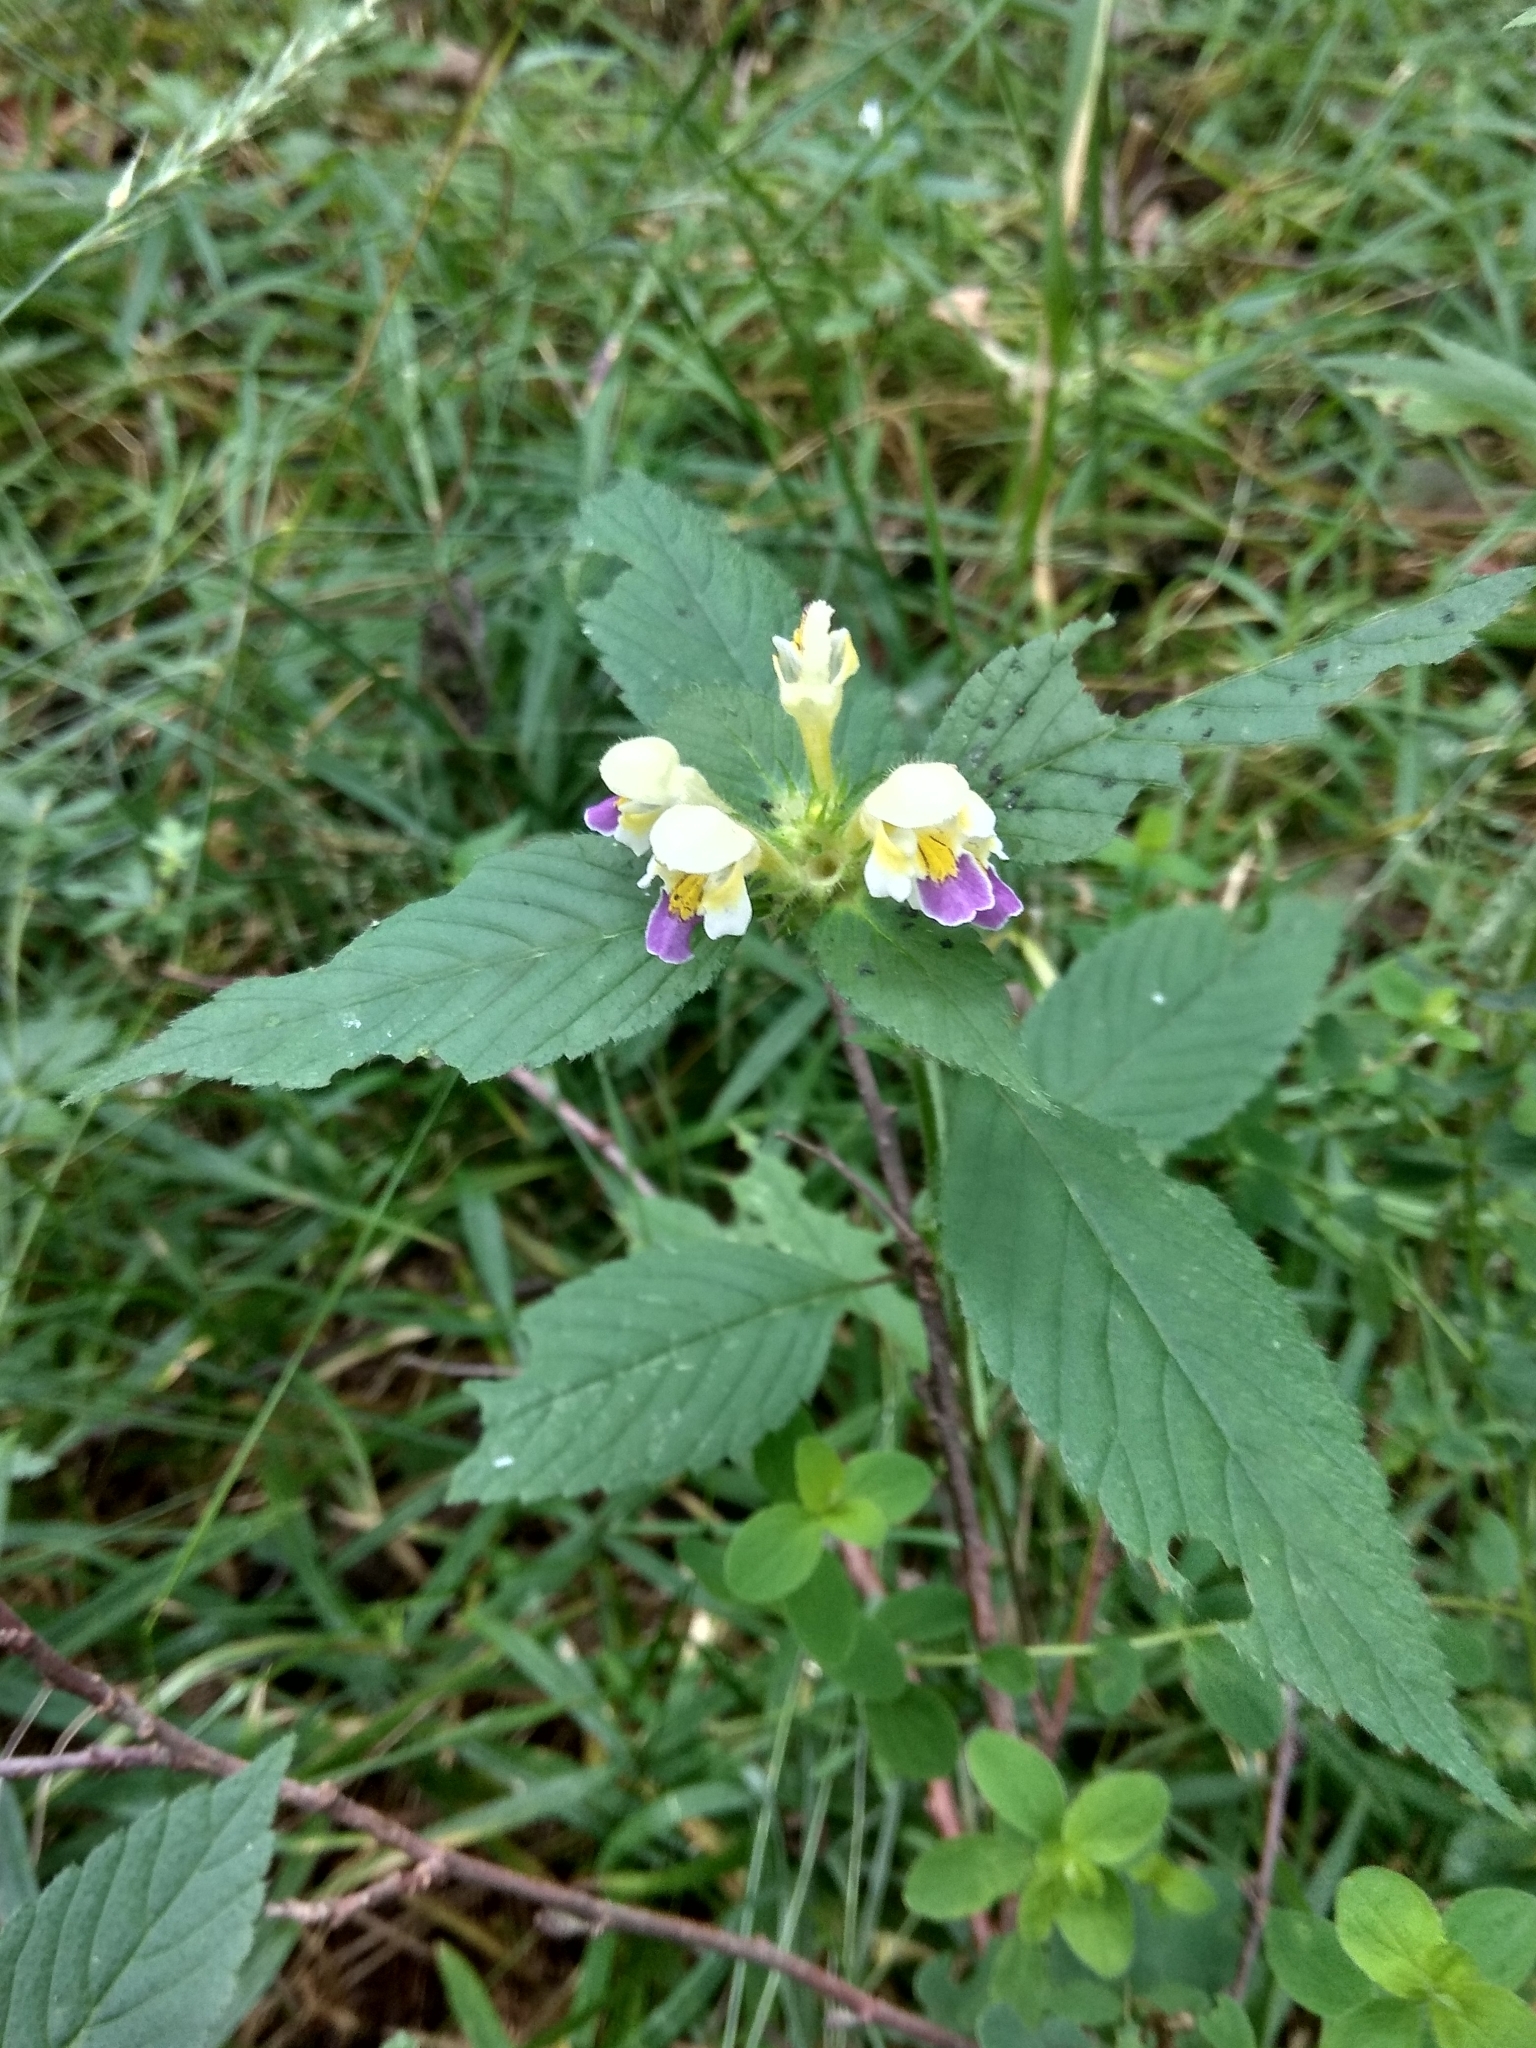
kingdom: Plantae
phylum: Tracheophyta
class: Magnoliopsida
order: Lamiales
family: Lamiaceae
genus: Galeopsis
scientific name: Galeopsis speciosa
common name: Large-flowered hemp-nettle
